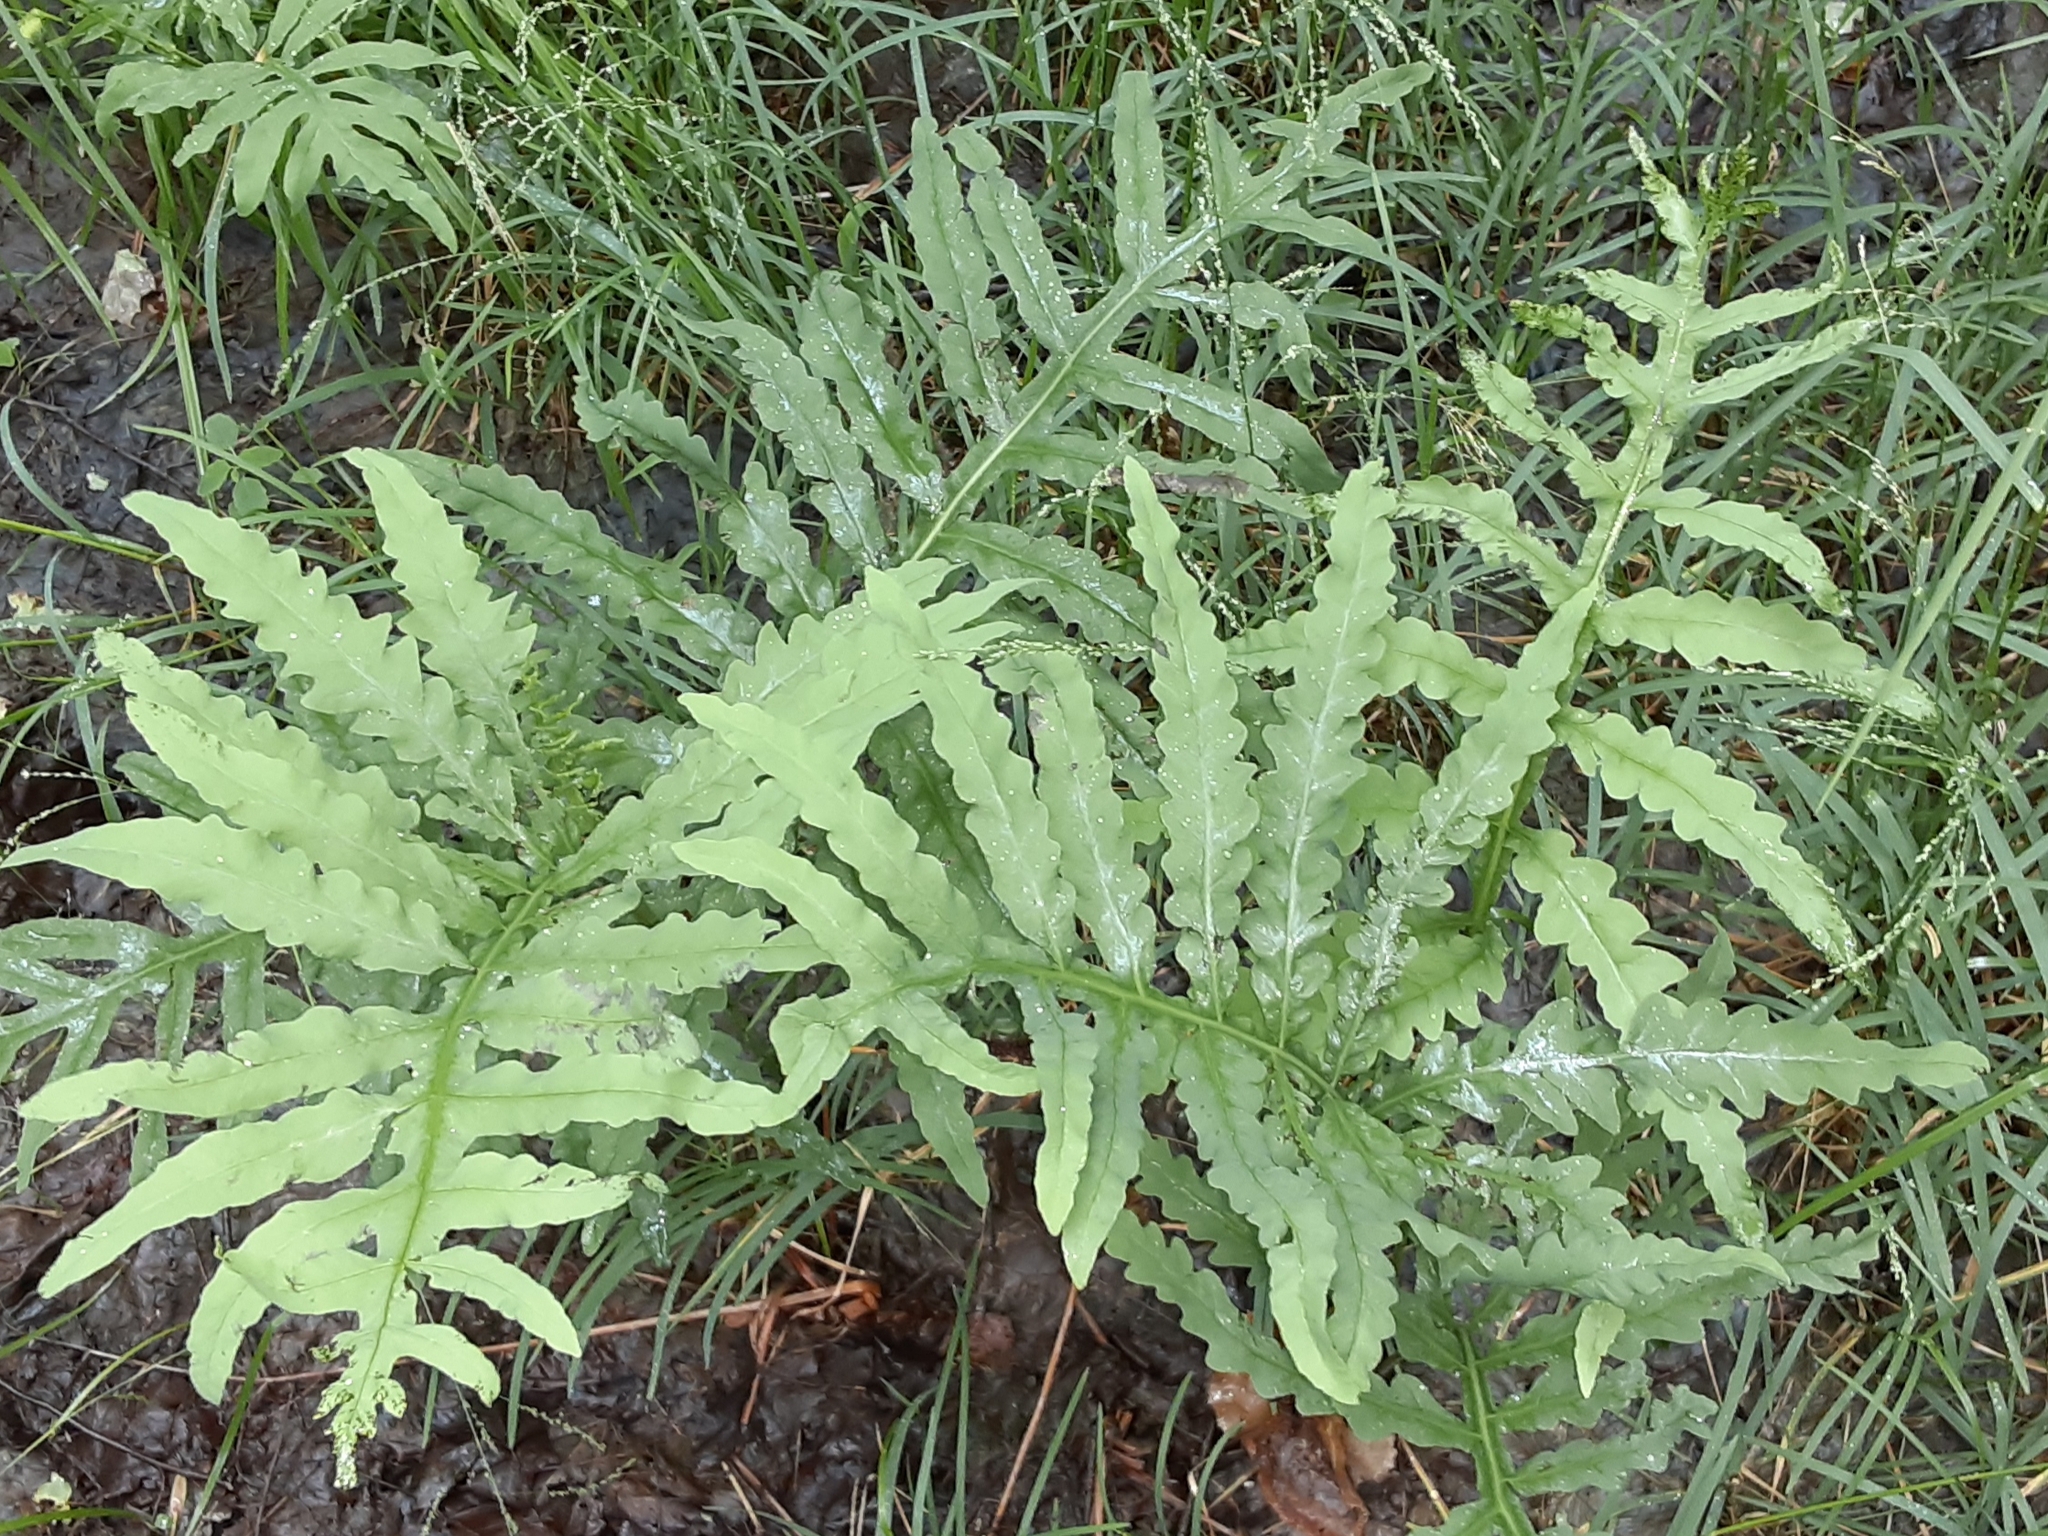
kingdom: Plantae
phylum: Tracheophyta
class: Polypodiopsida
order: Polypodiales
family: Onocleaceae
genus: Onoclea
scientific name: Onoclea sensibilis
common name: Sensitive fern
